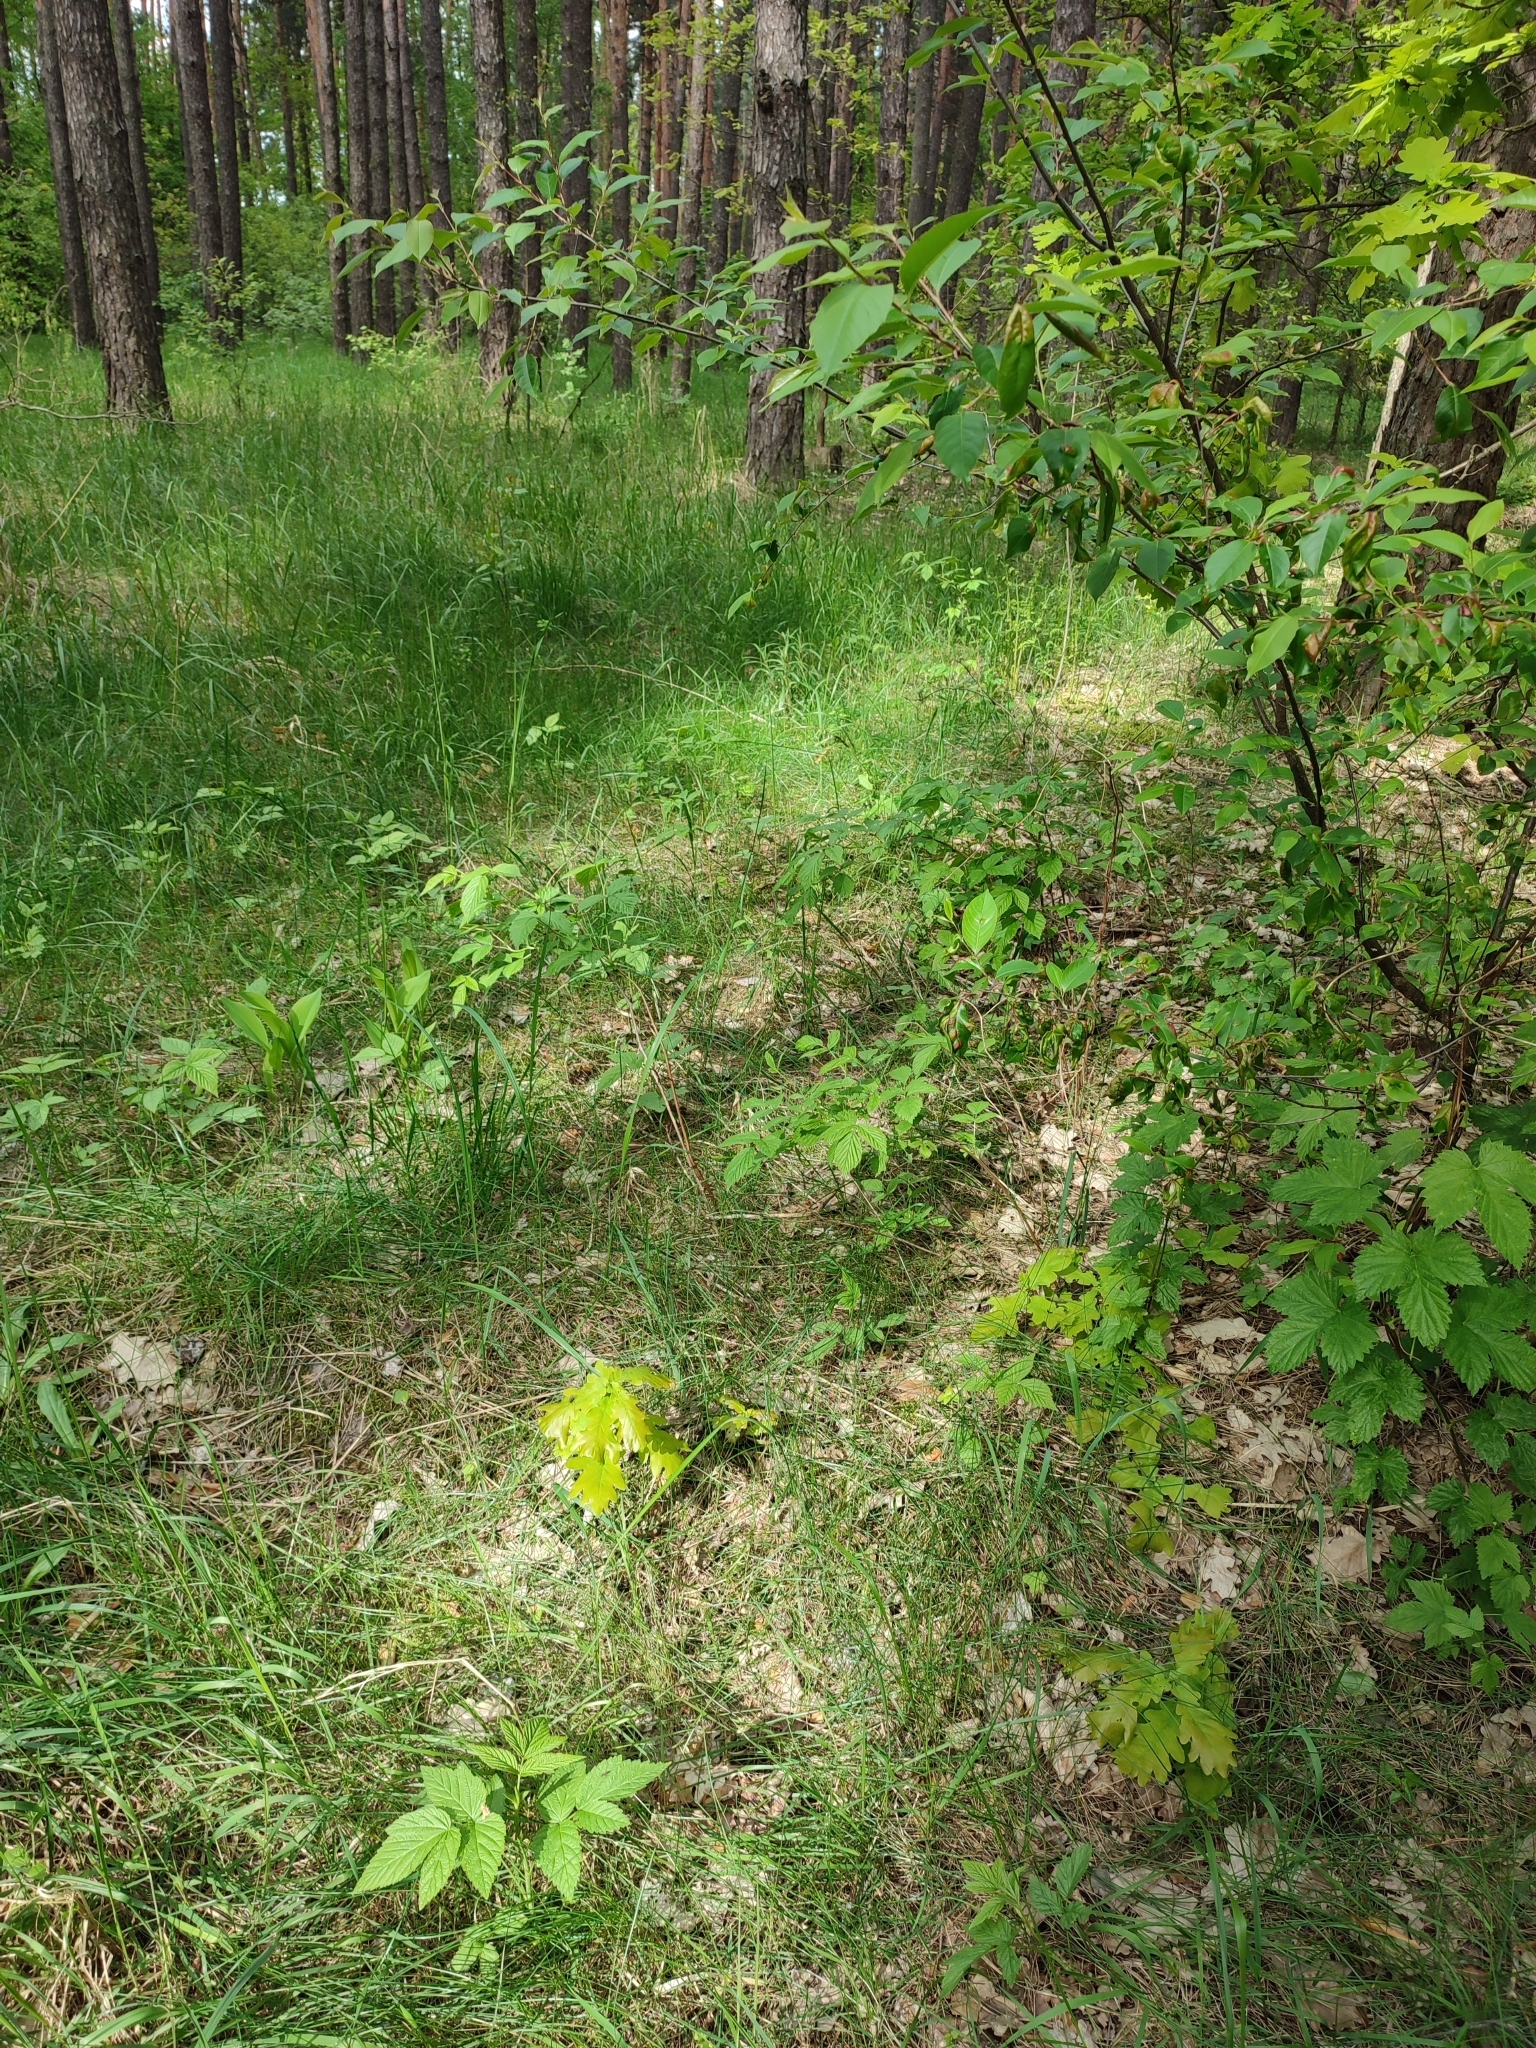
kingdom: Plantae
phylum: Tracheophyta
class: Magnoliopsida
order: Fagales
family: Fagaceae
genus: Quercus
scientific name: Quercus robur
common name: Pedunculate oak
